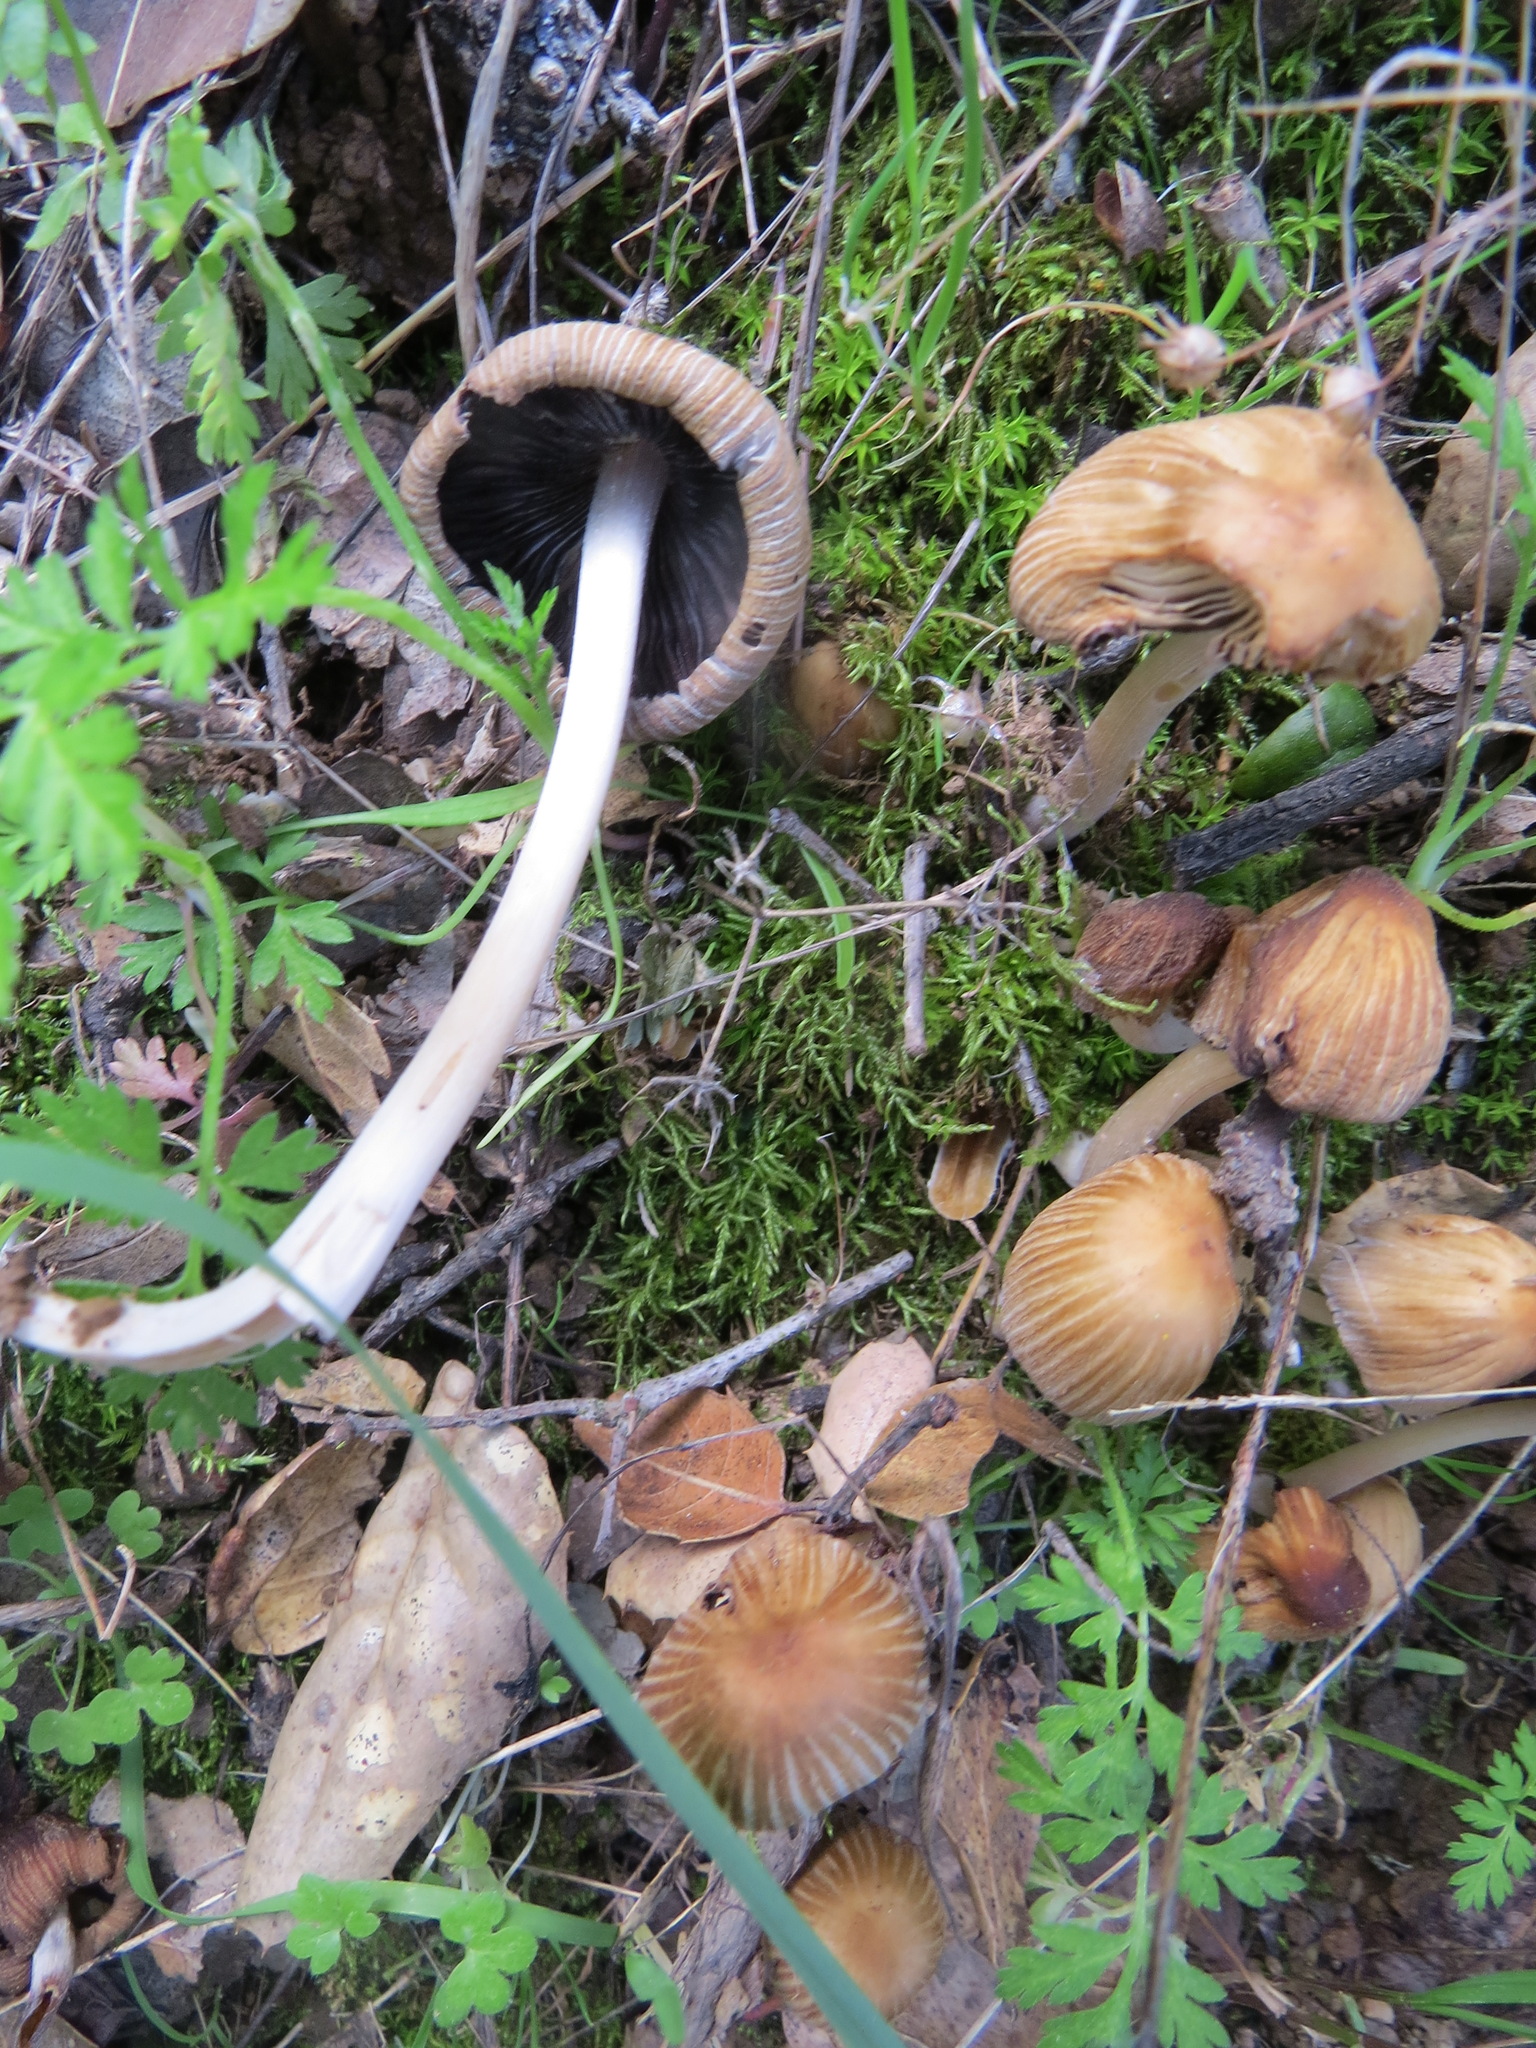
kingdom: Fungi
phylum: Basidiomycota
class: Agaricomycetes
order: Agaricales
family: Psathyrellaceae
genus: Tulosesus
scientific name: Tulosesus impatiens
